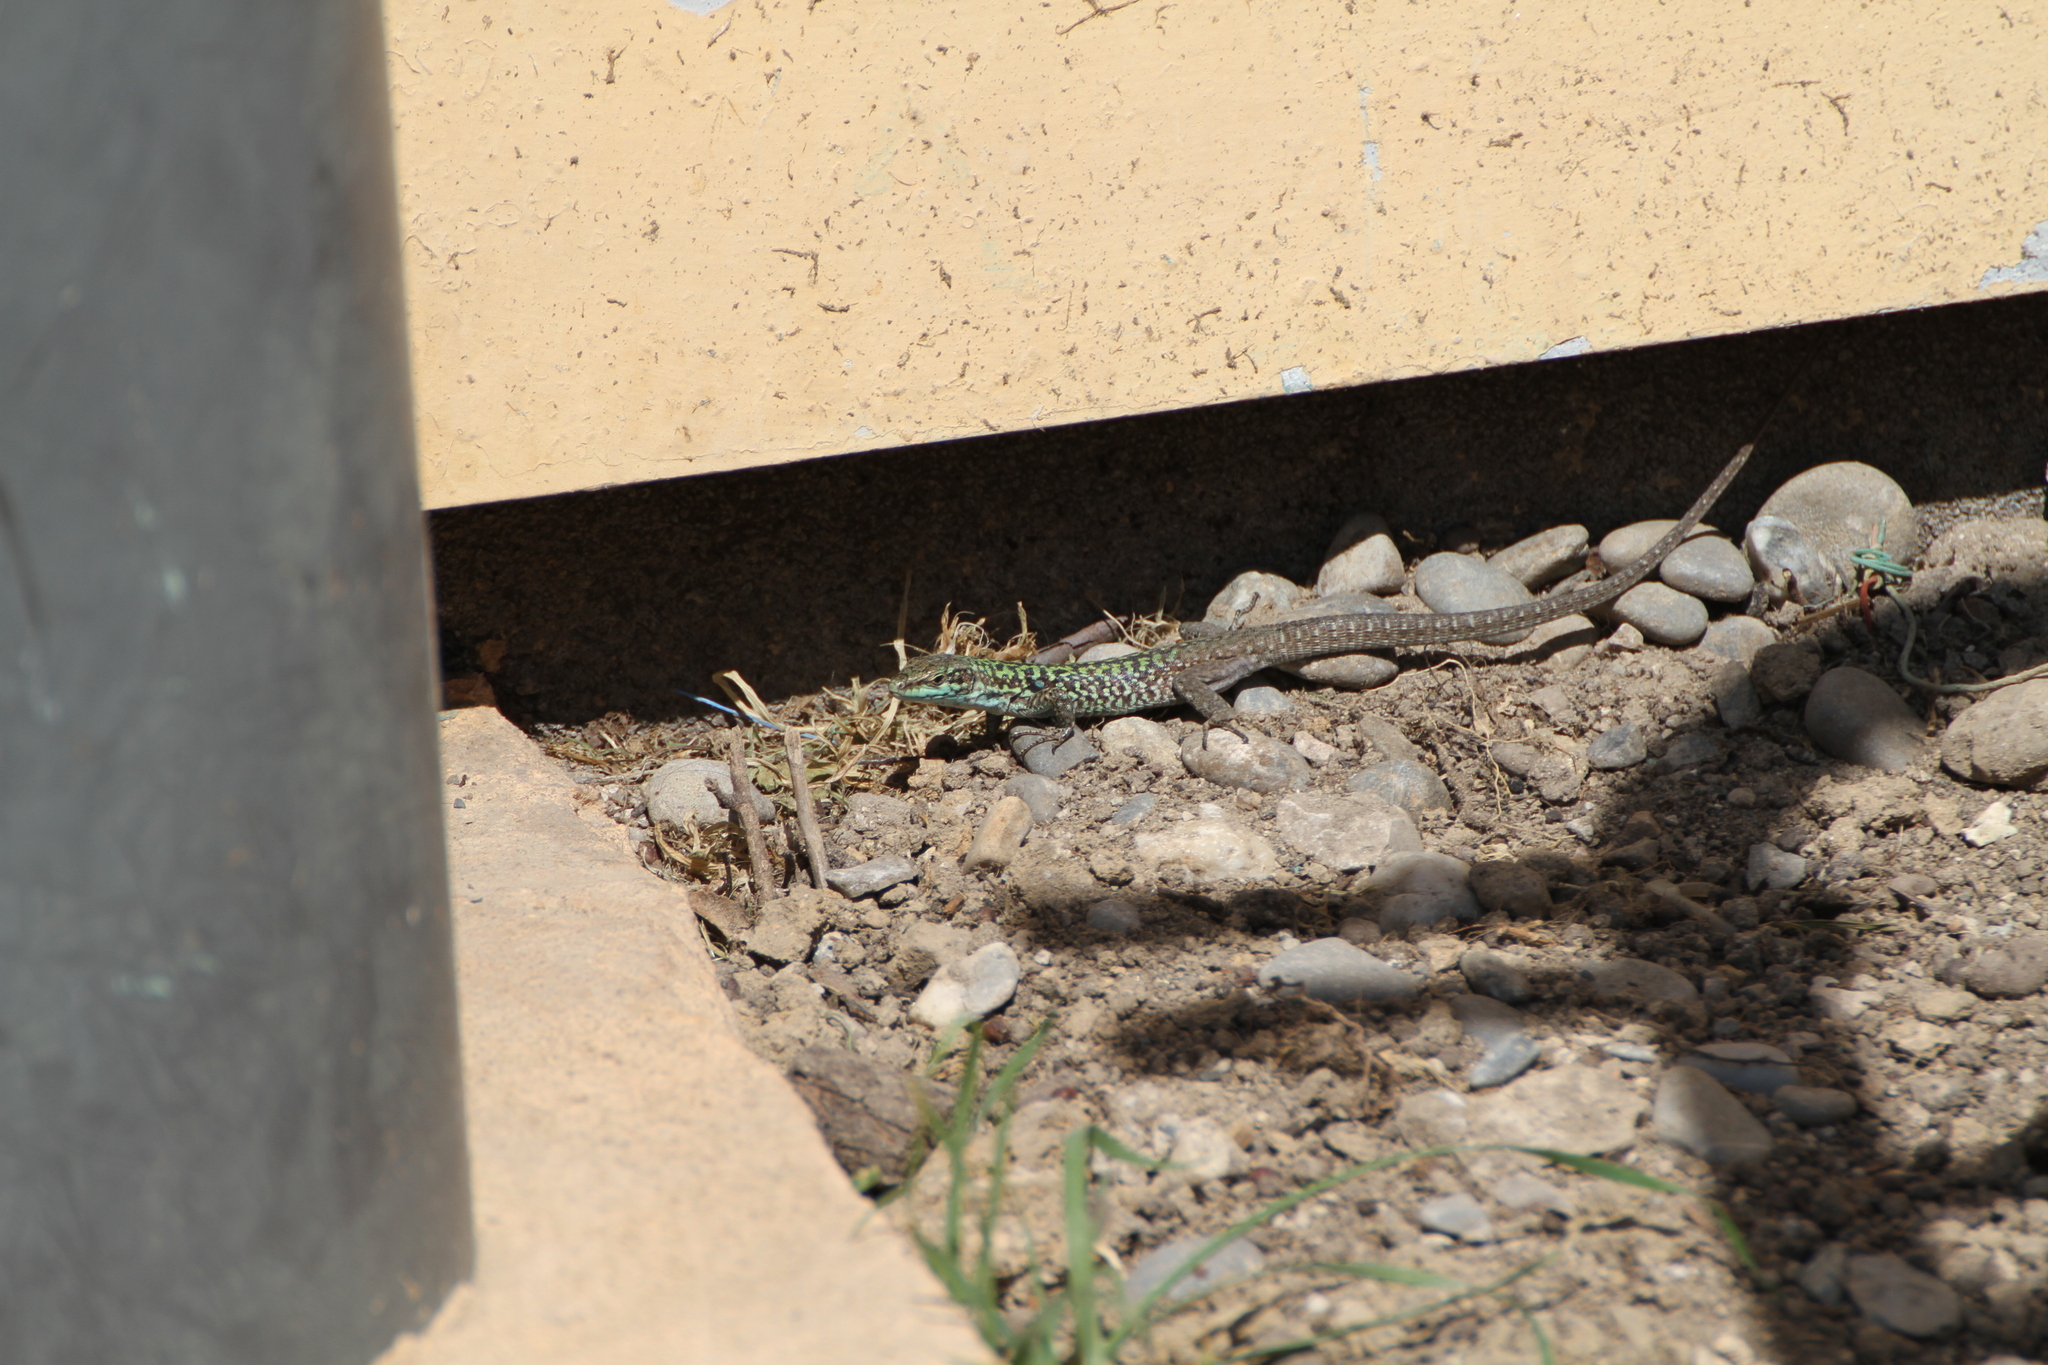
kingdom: Animalia
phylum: Chordata
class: Squamata
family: Lacertidae
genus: Podarcis
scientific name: Podarcis siculus
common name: Italian wall lizard
